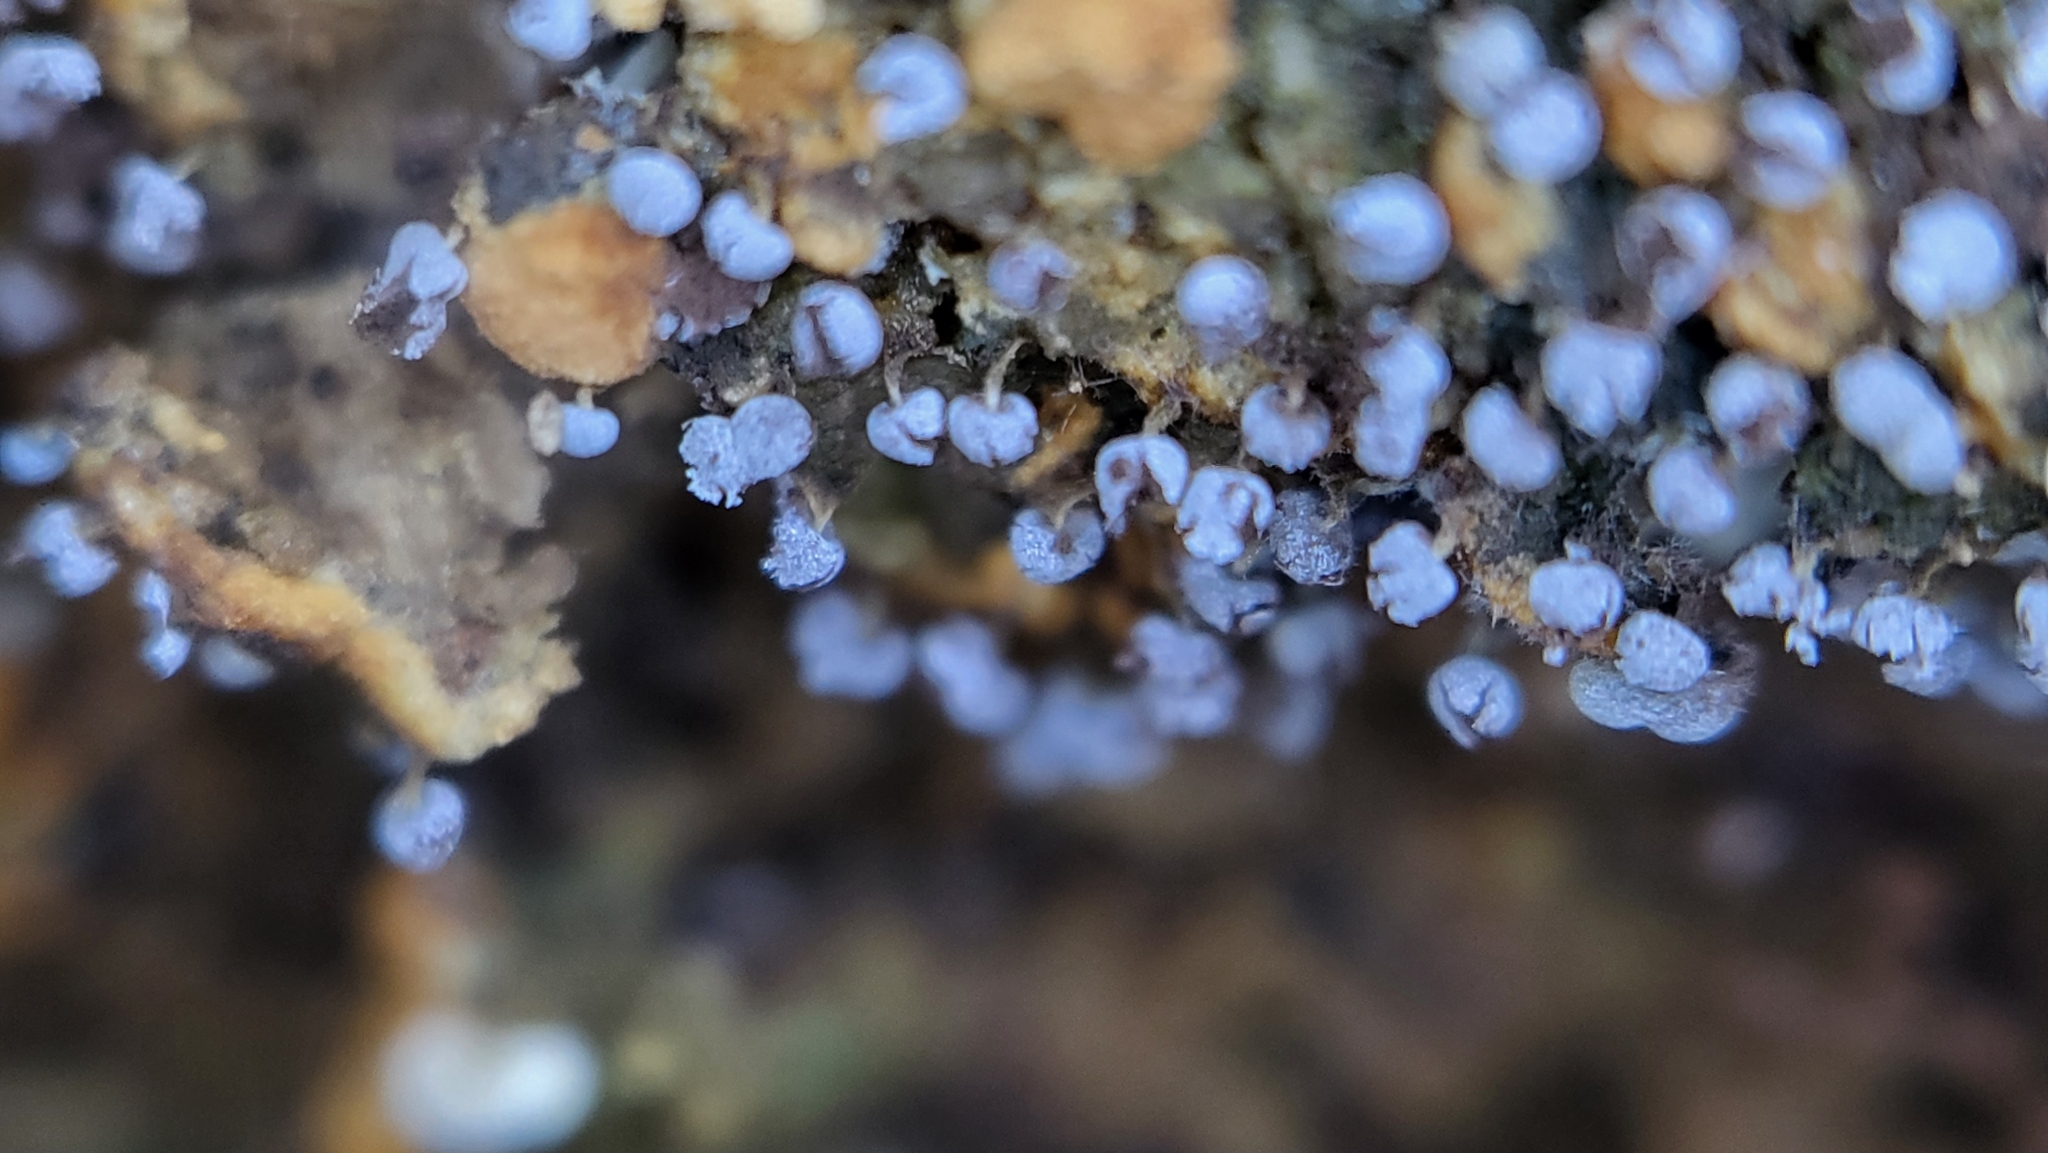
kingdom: Protozoa
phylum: Mycetozoa
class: Myxomycetes
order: Physarales
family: Physaraceae
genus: Physarum
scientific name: Physarum album
